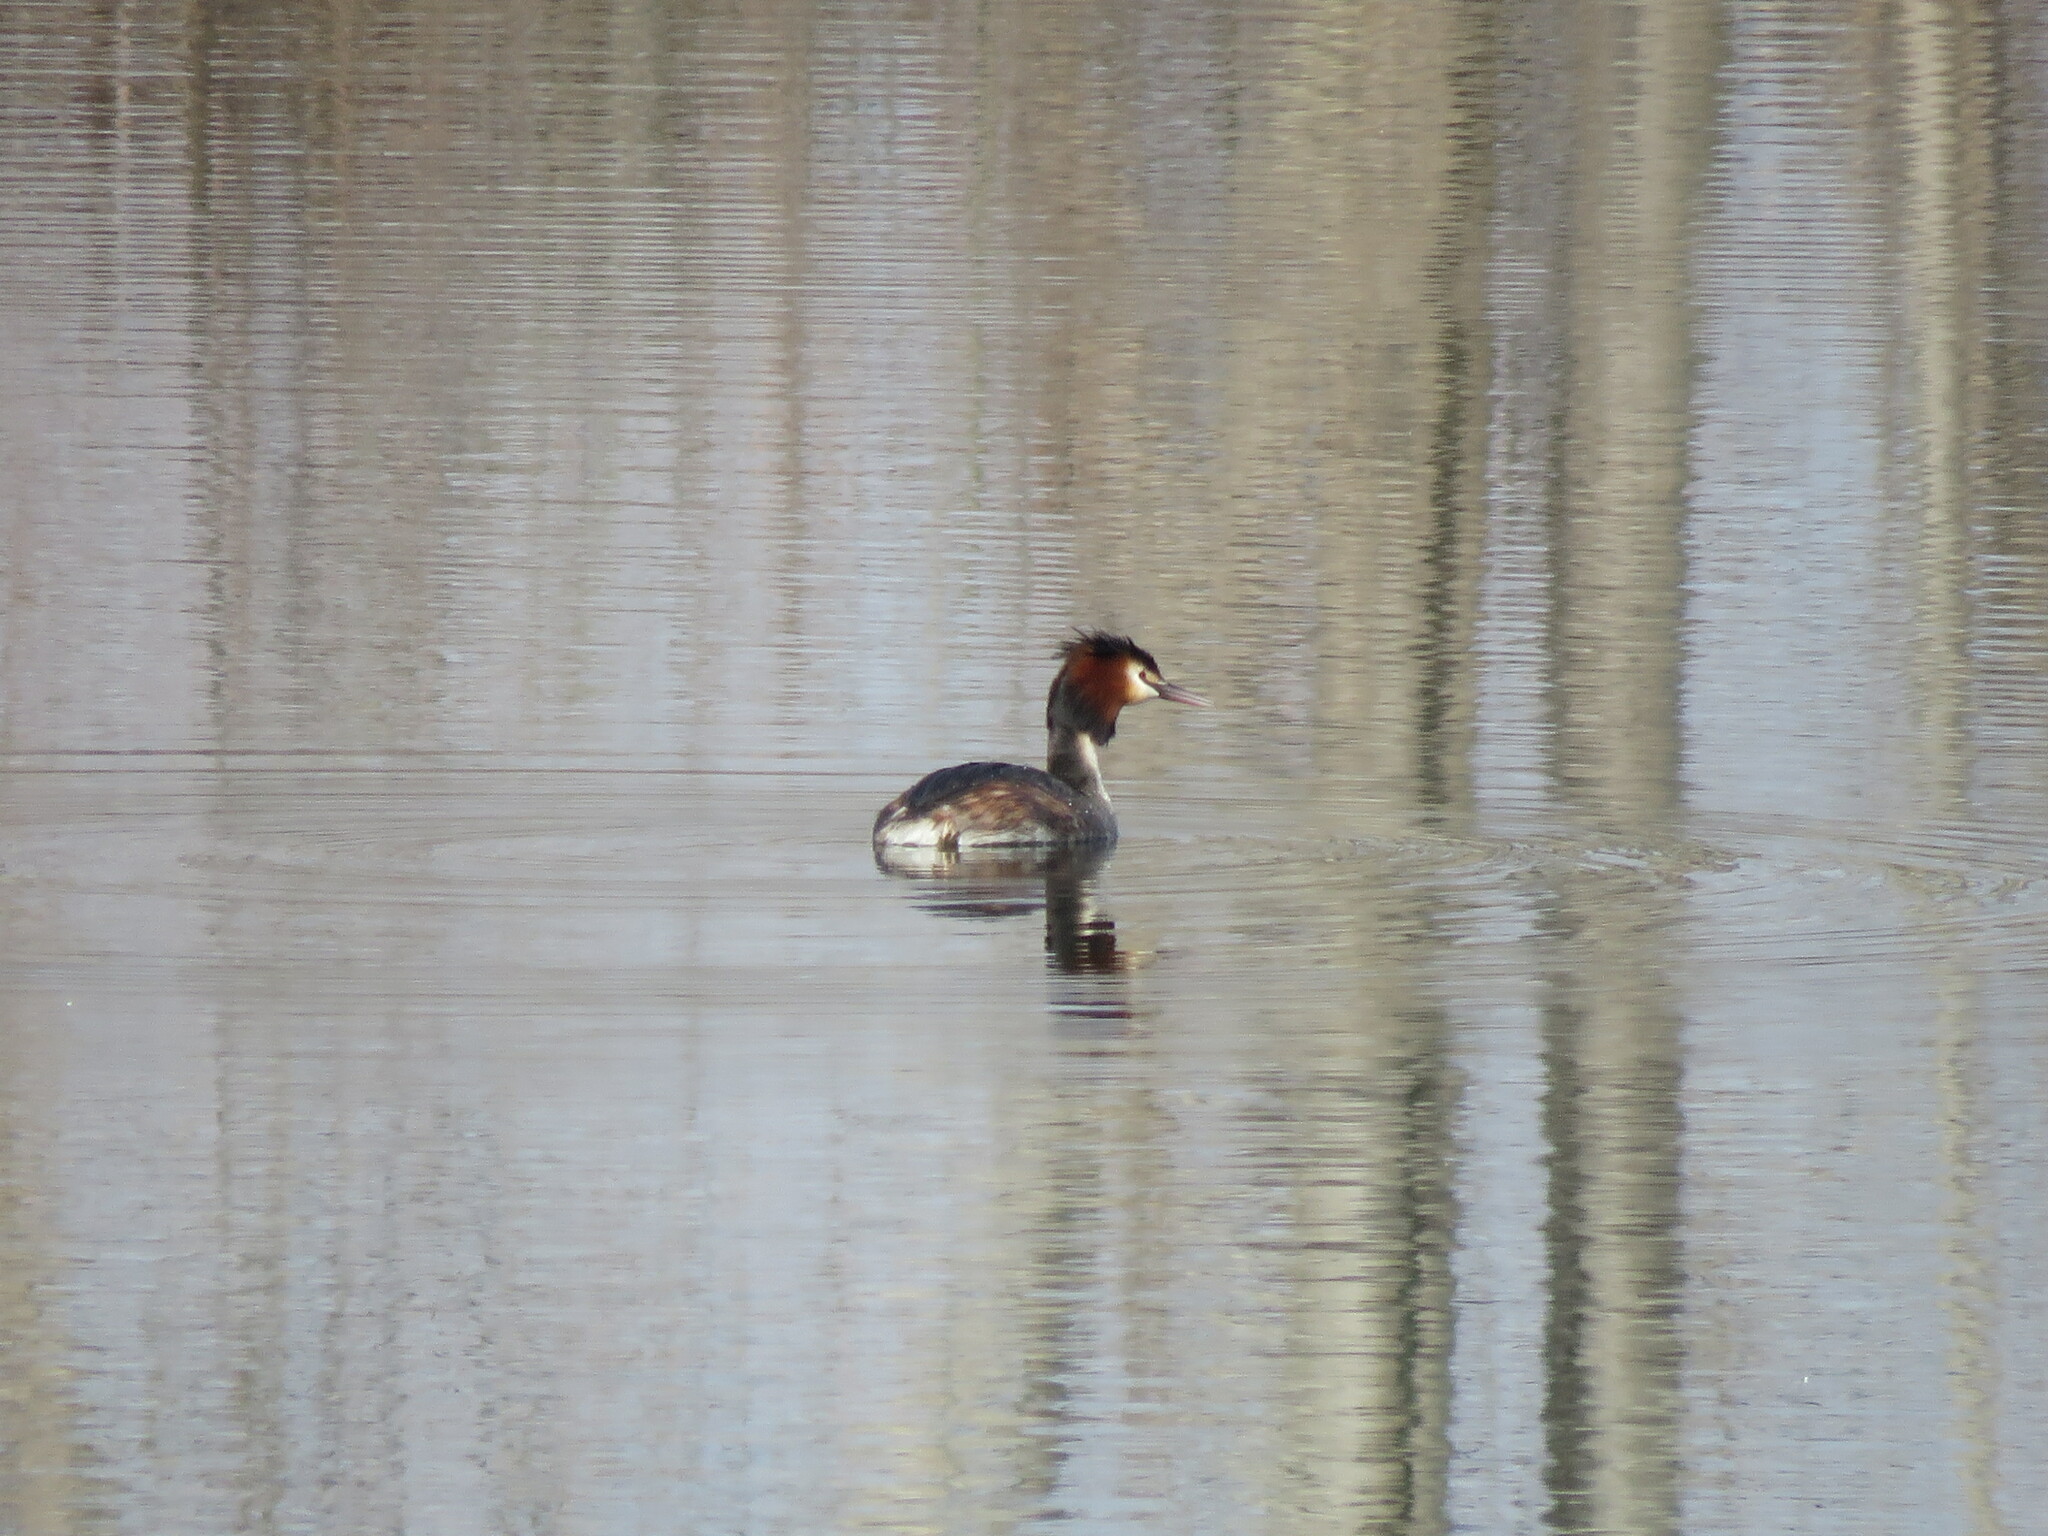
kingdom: Animalia
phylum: Chordata
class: Aves
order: Podicipediformes
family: Podicipedidae
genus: Podiceps
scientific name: Podiceps cristatus
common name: Great crested grebe
